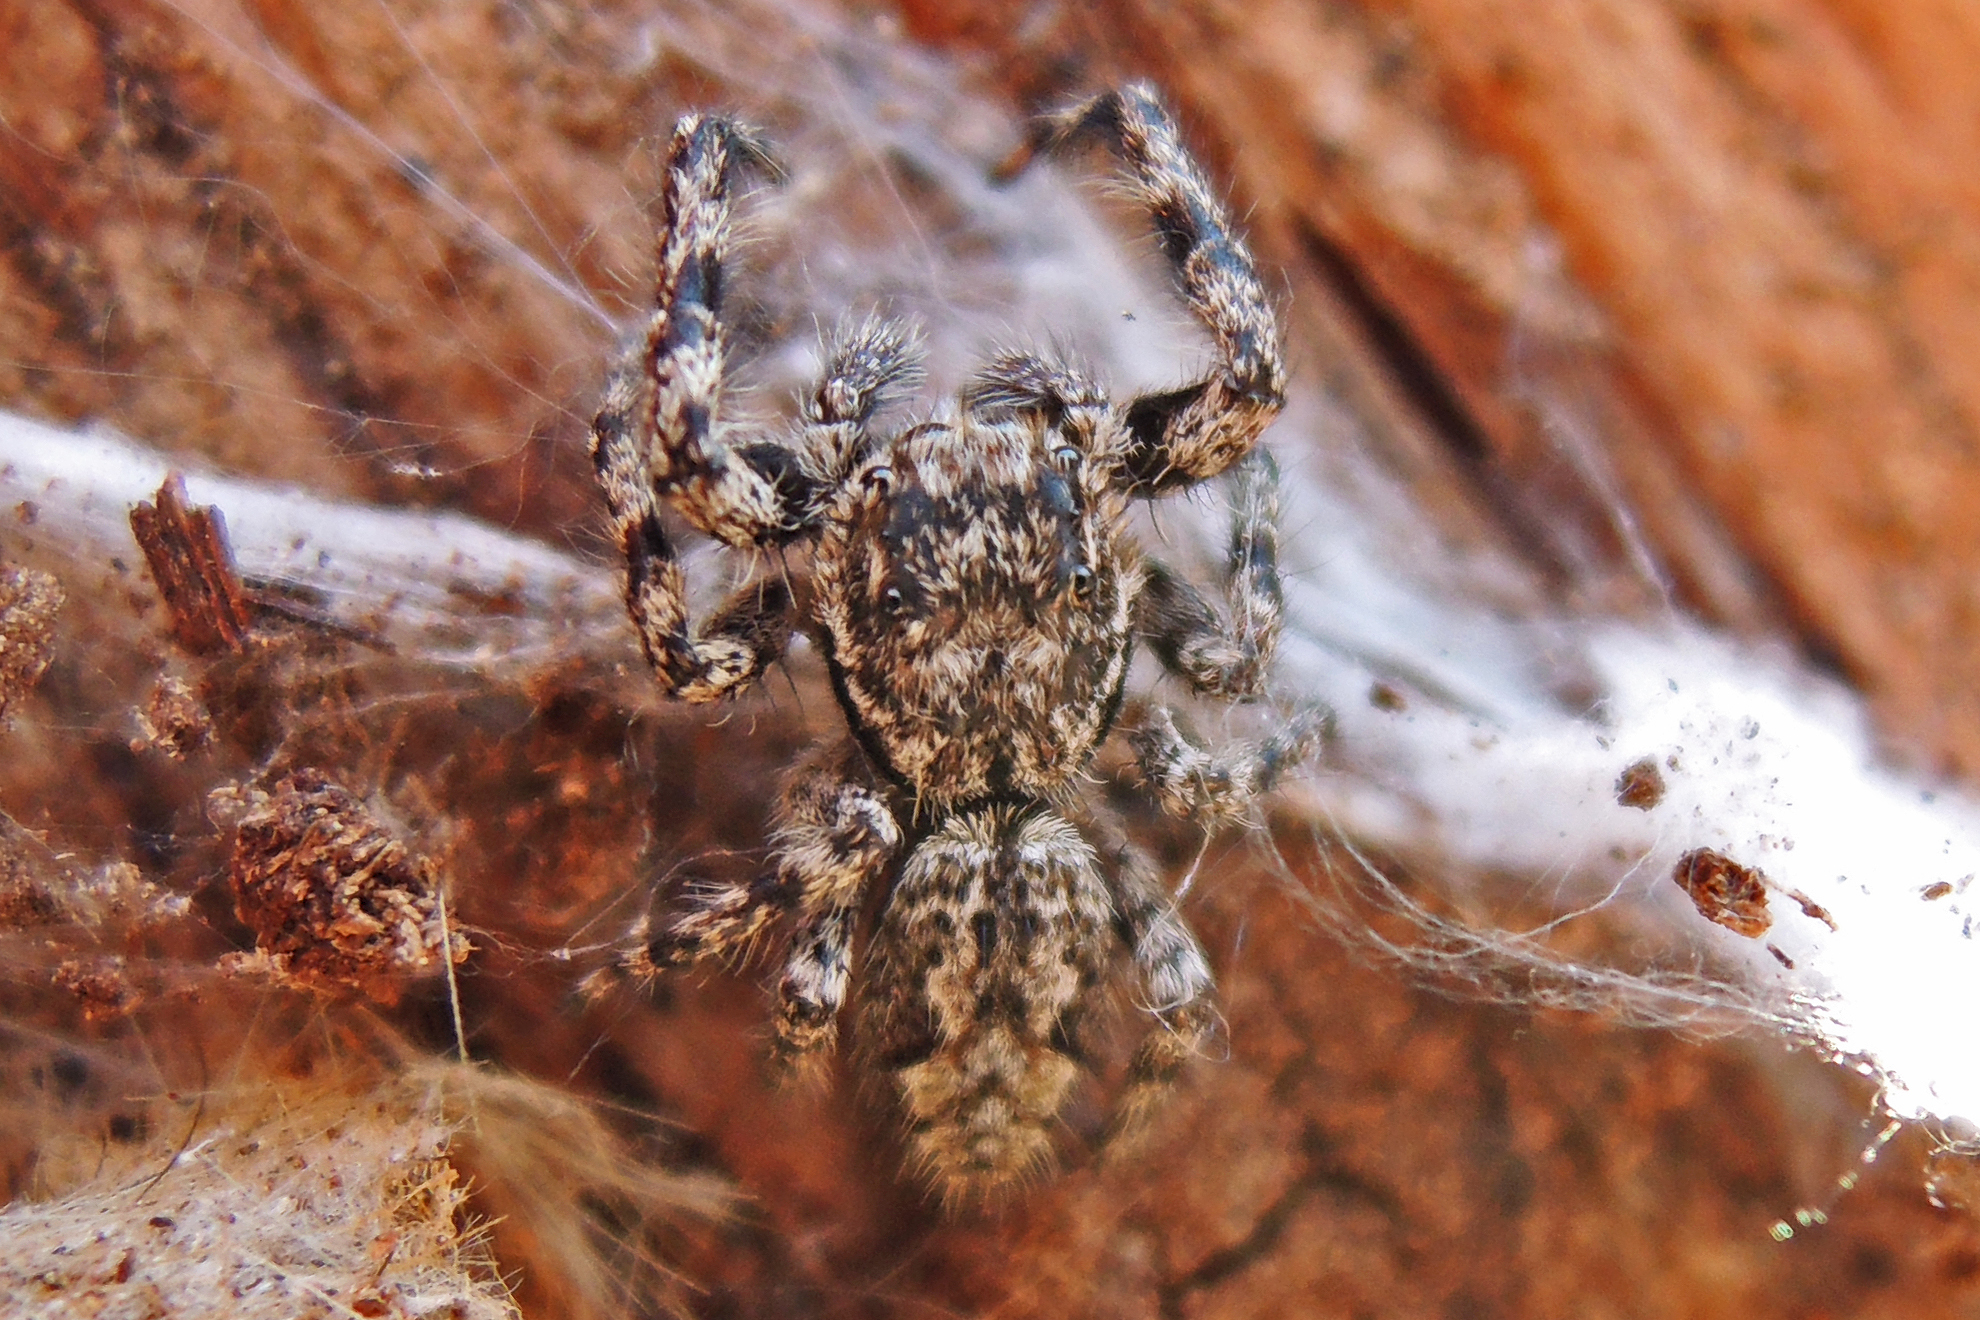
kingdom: Animalia
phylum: Arthropoda
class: Arachnida
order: Araneae
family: Salticidae
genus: Platycryptus
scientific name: Platycryptus undatus
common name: Tan jumping spider
